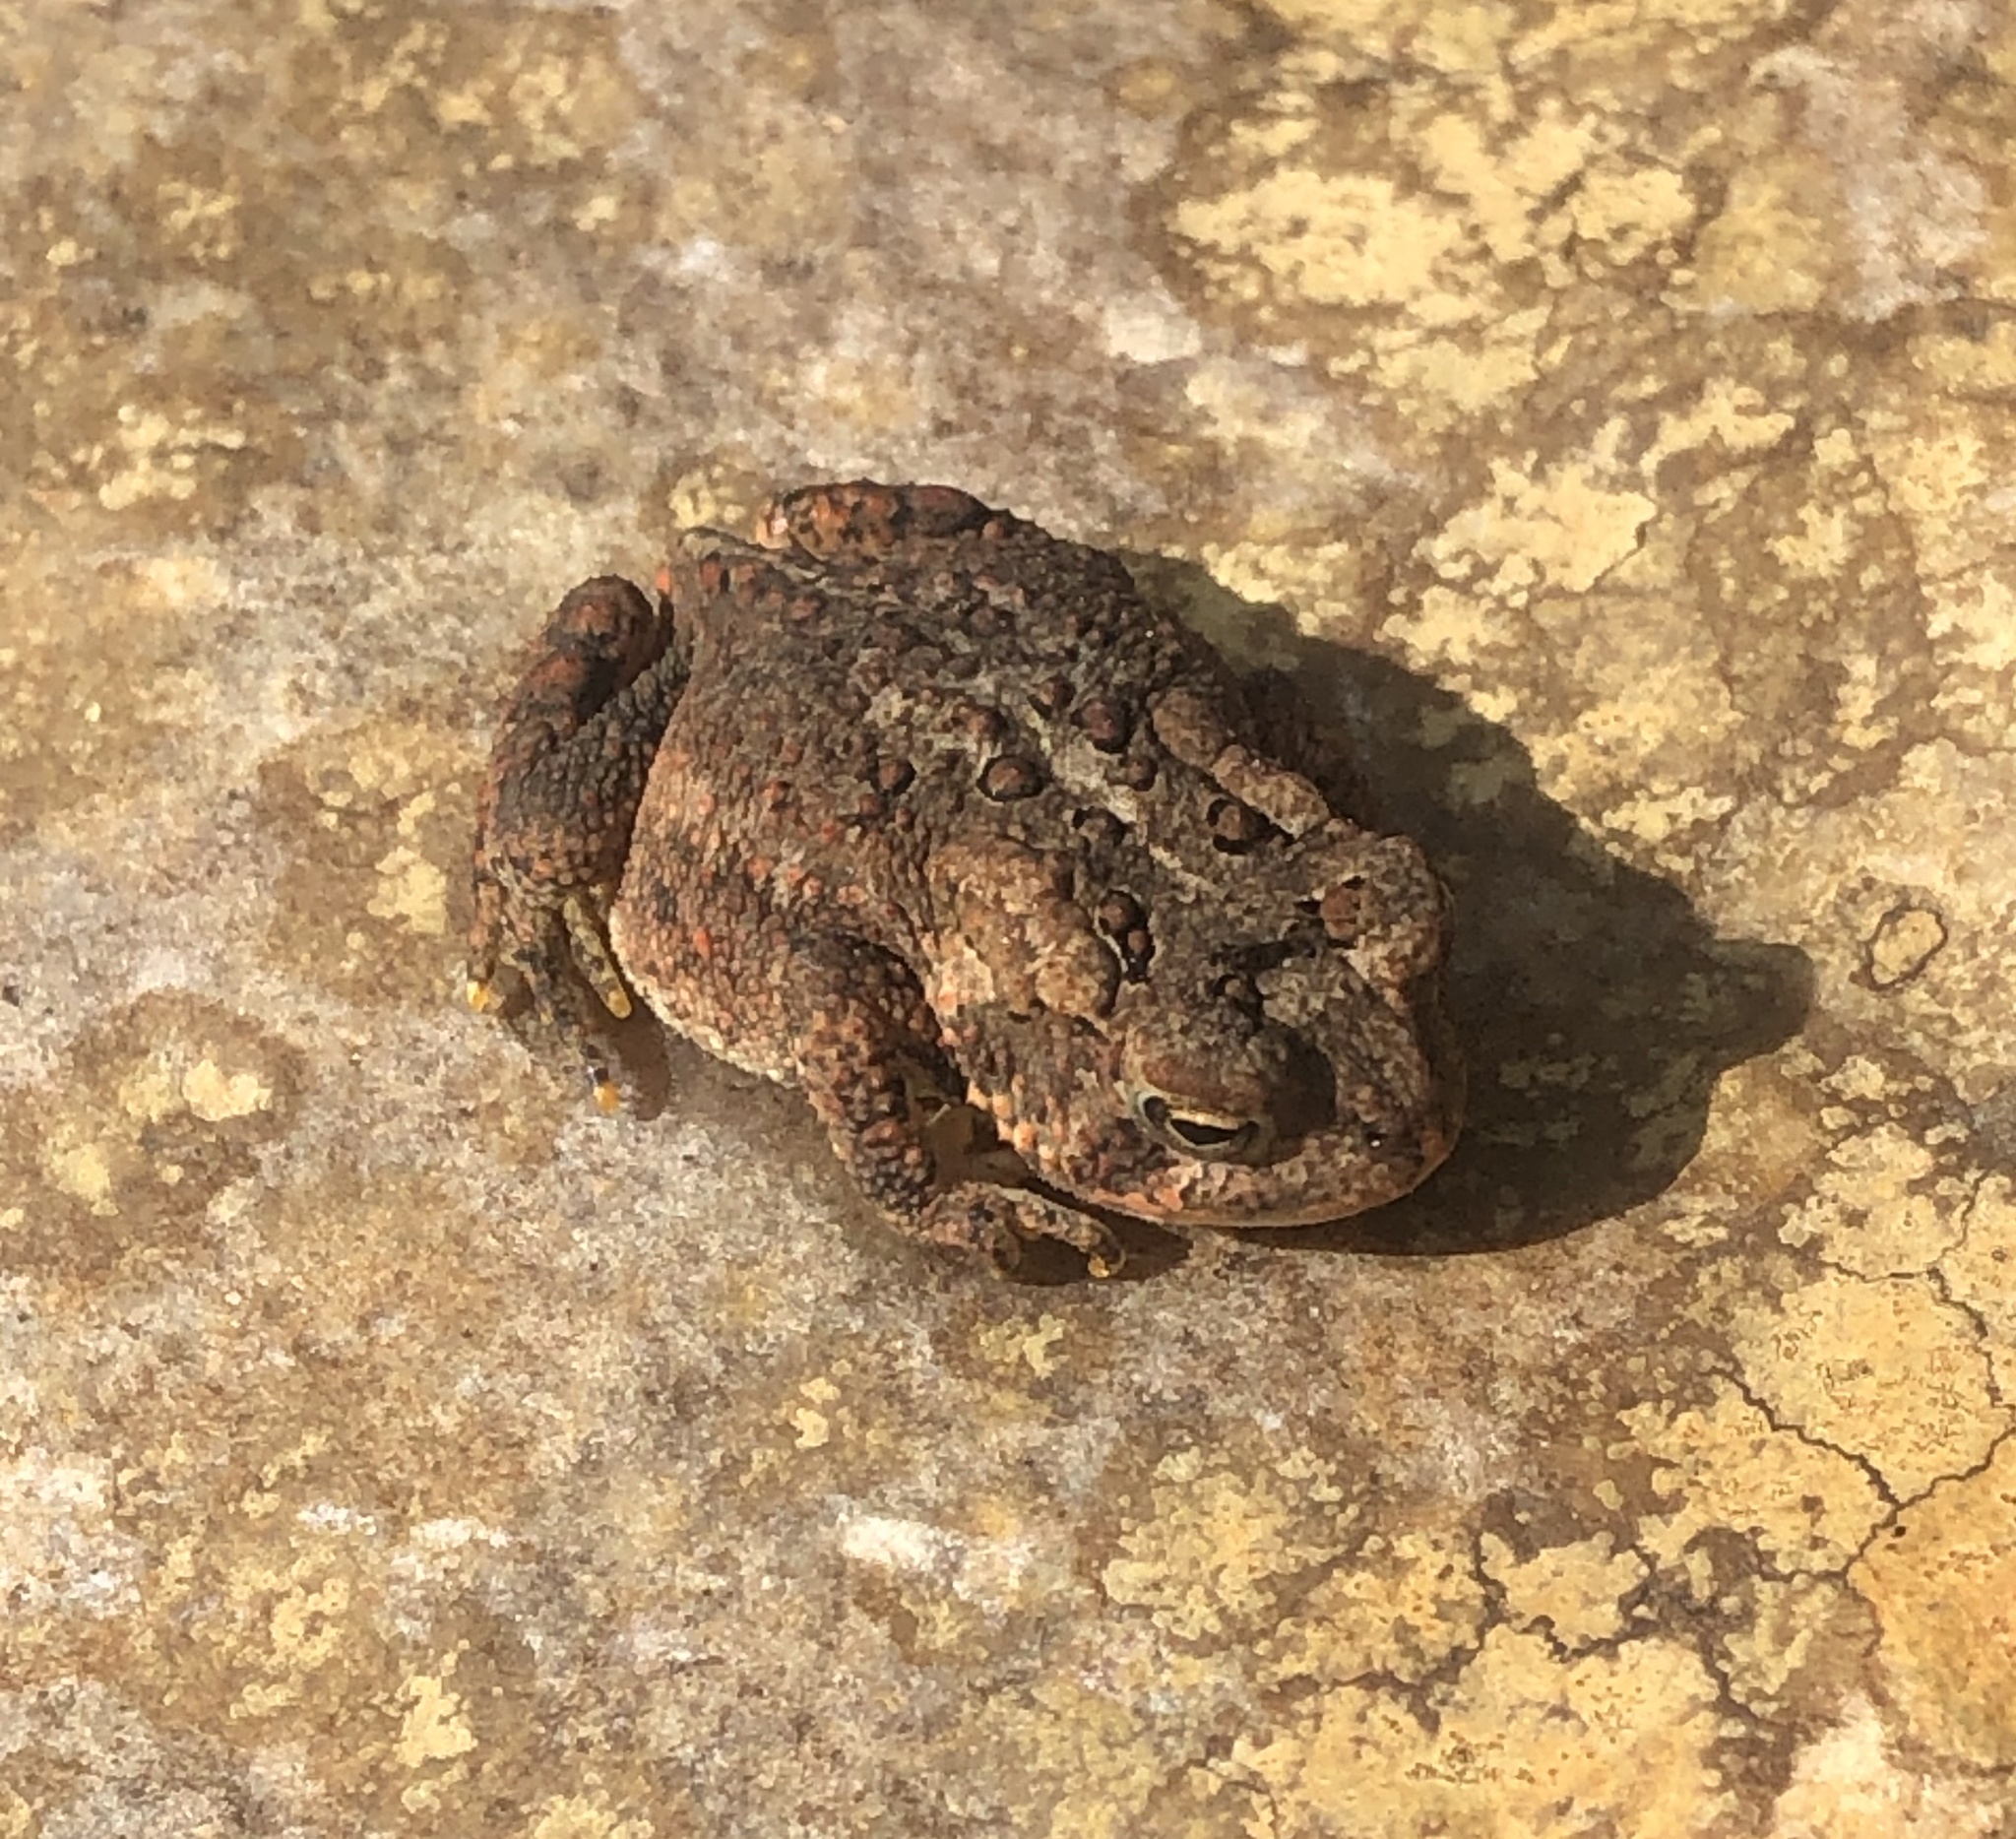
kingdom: Animalia
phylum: Chordata
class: Amphibia
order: Anura
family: Bufonidae
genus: Anaxyrus
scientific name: Anaxyrus americanus
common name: American toad
